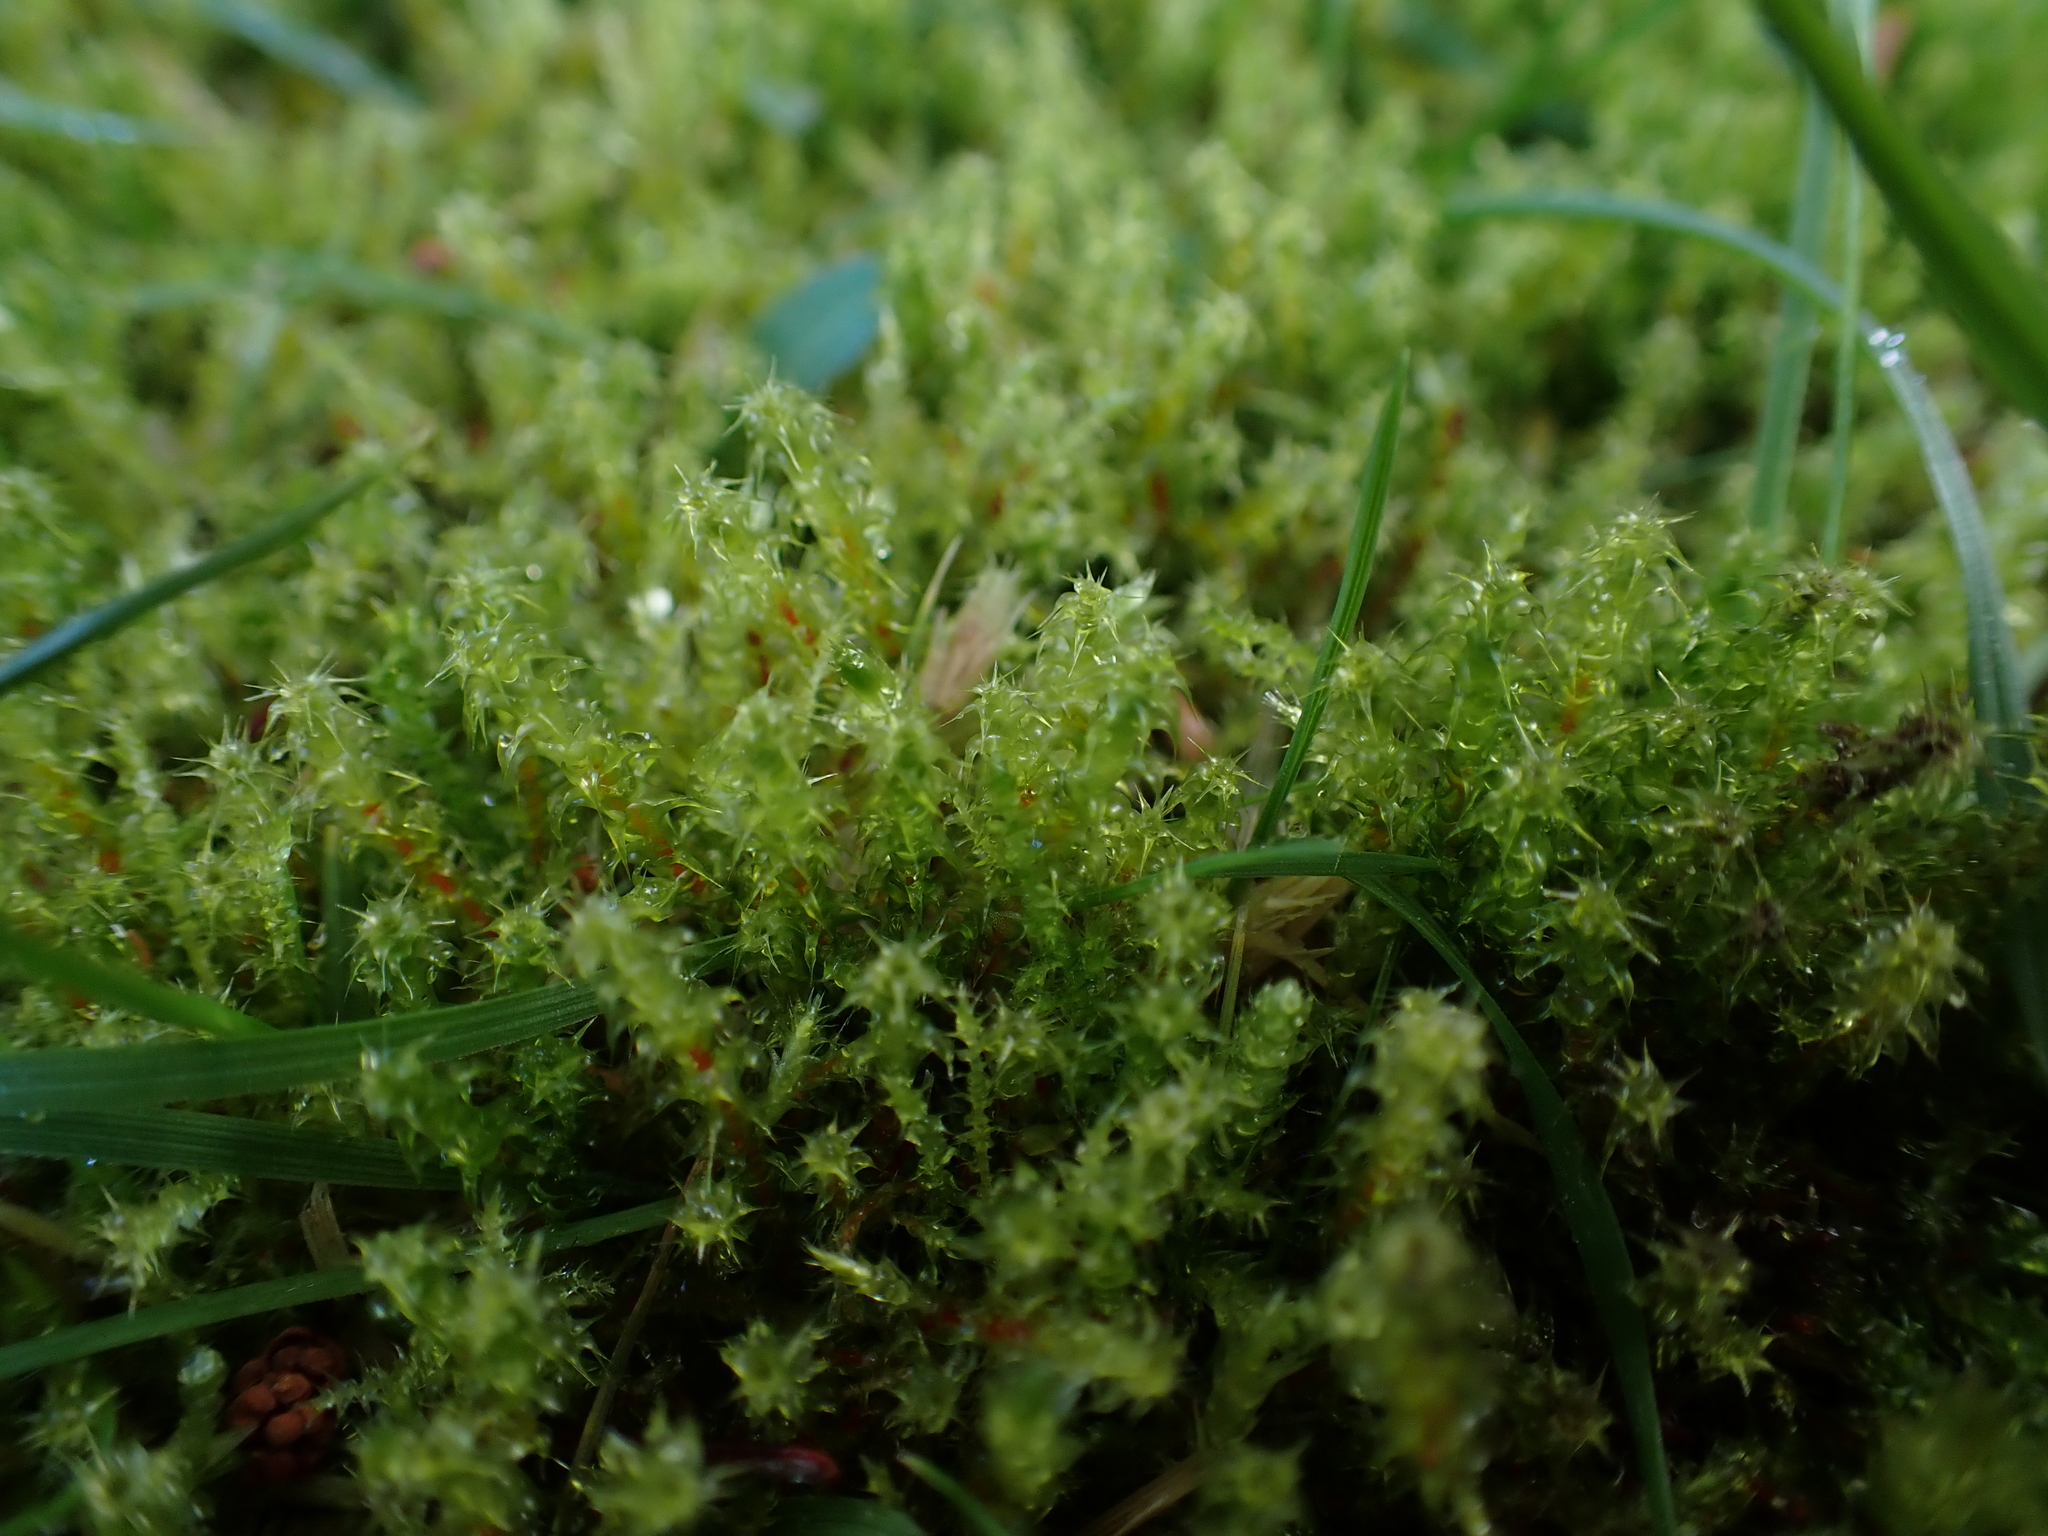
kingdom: Plantae
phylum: Bryophyta
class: Bryopsida
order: Hypnales
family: Hylocomiaceae
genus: Rhytidiadelphus
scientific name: Rhytidiadelphus squarrosus
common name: Springy turf-moss
